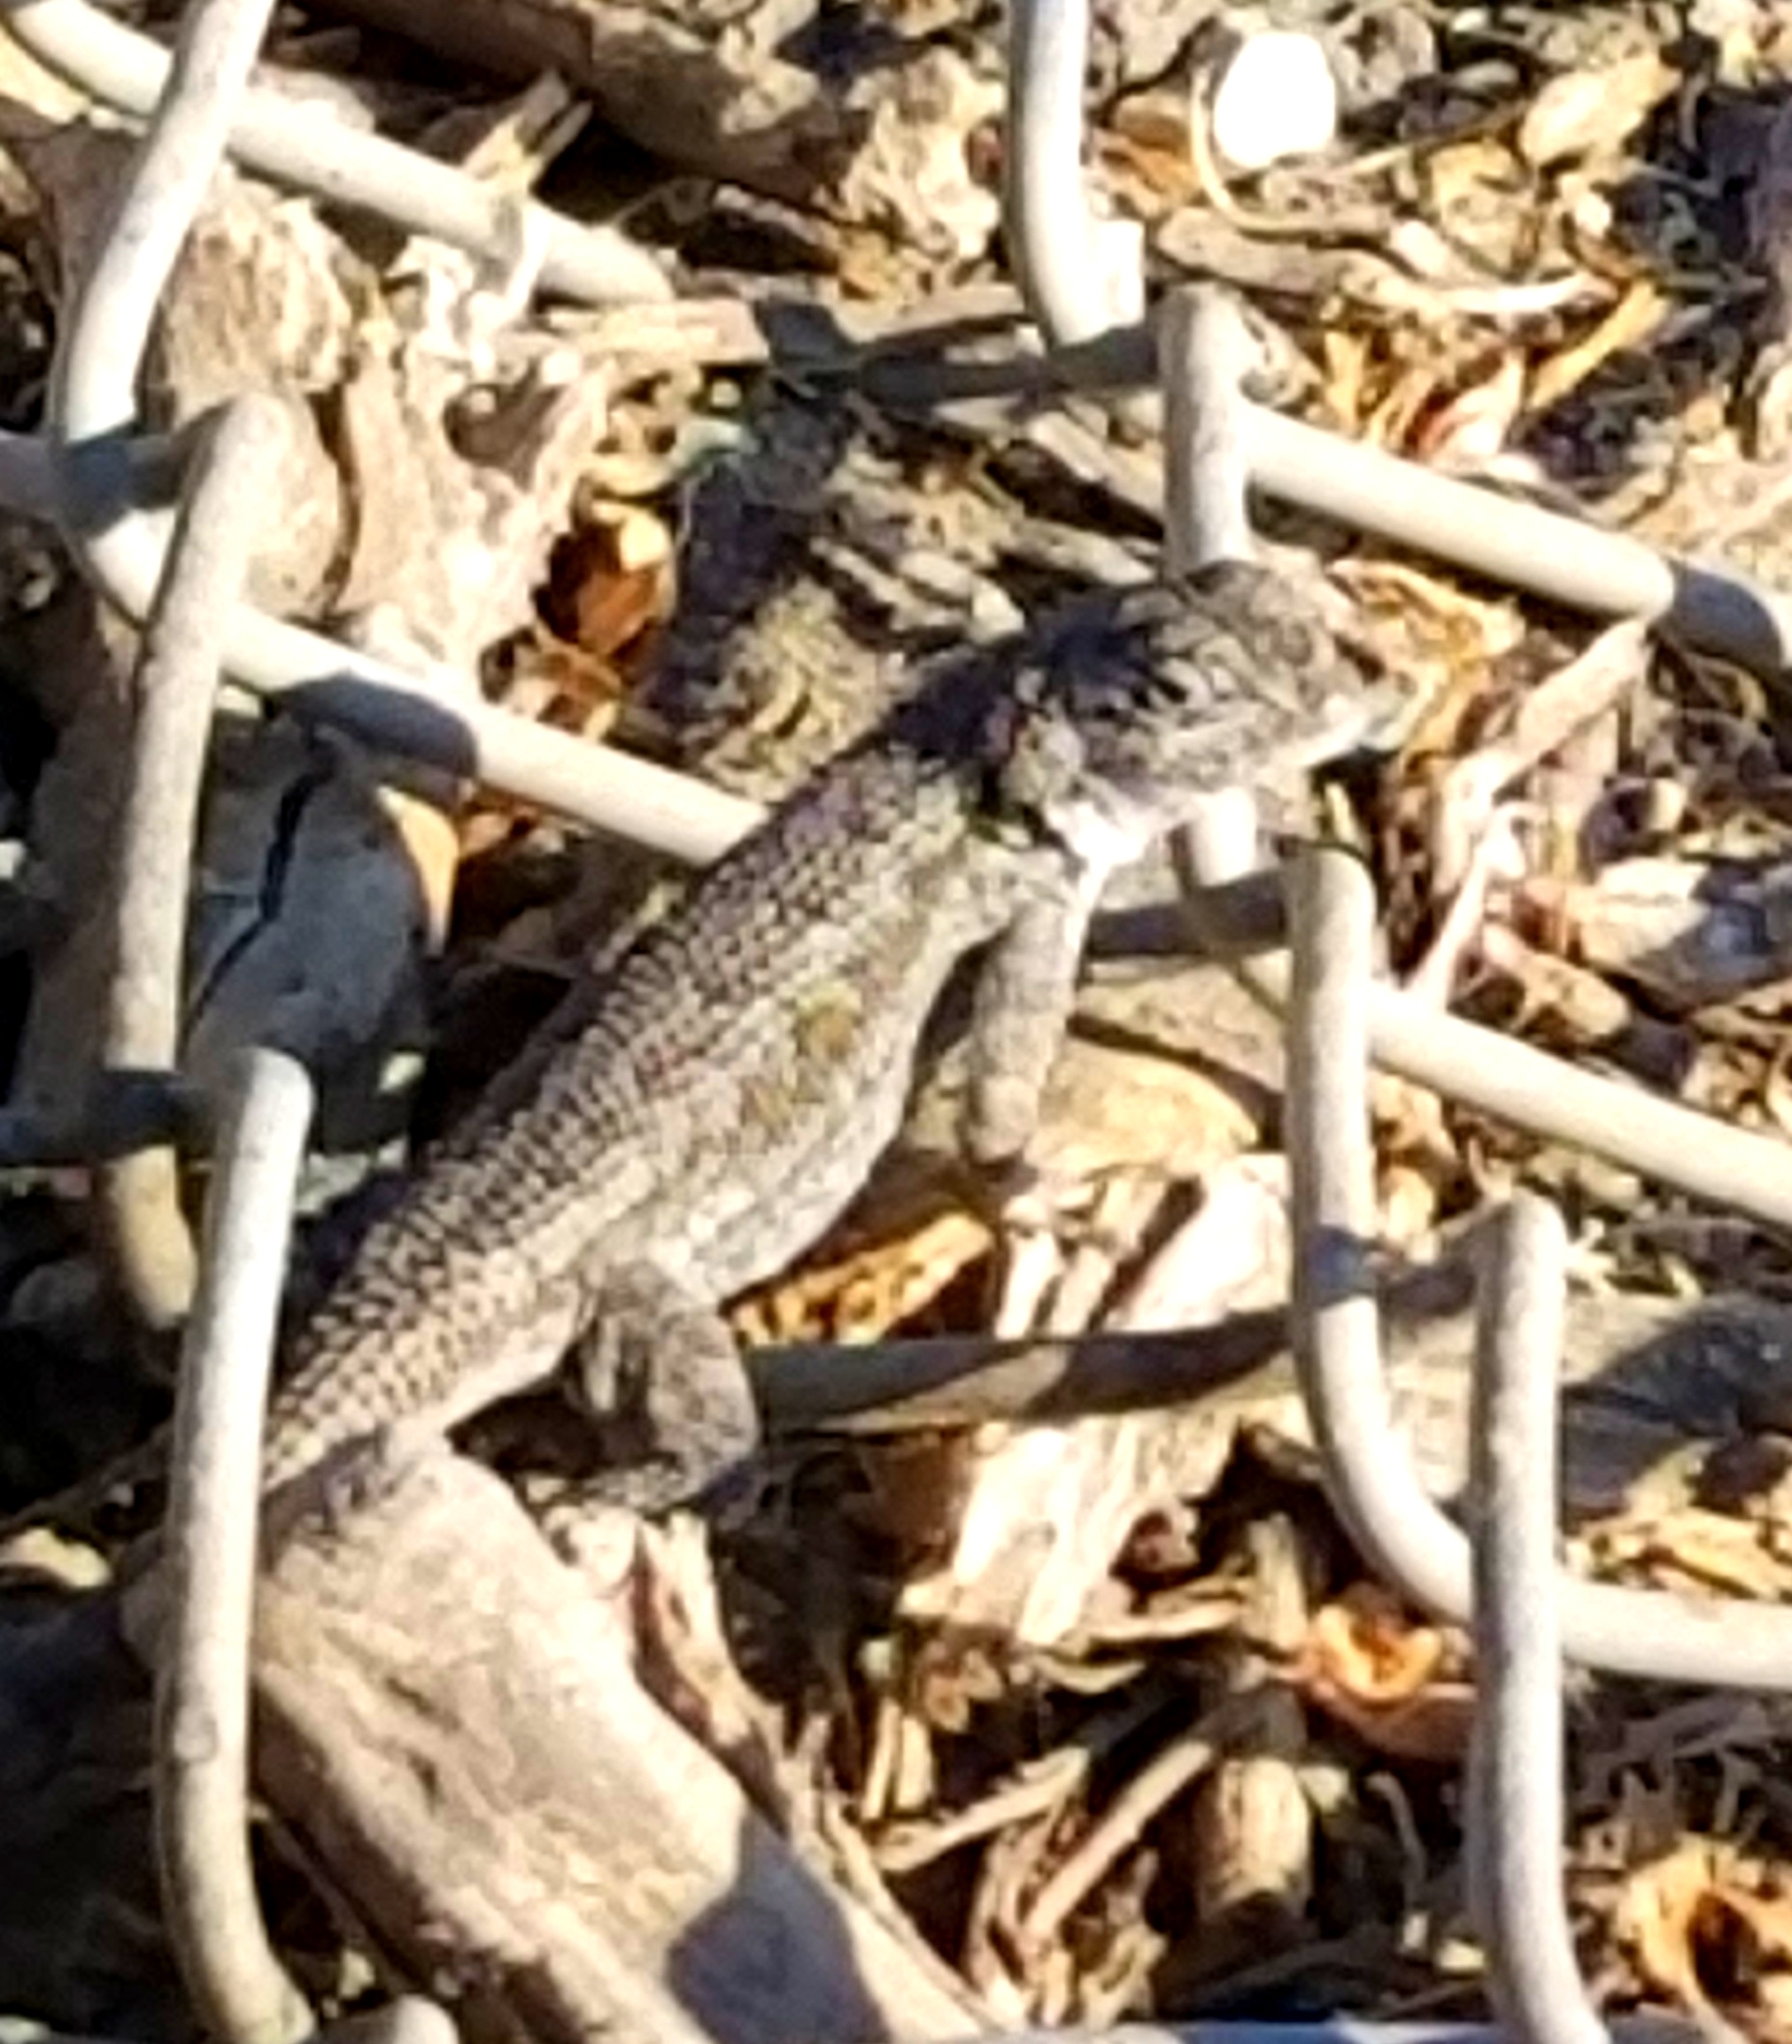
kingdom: Animalia
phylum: Chordata
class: Squamata
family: Phrynosomatidae
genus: Sceloporus
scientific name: Sceloporus occidentalis
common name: Western fence lizard
